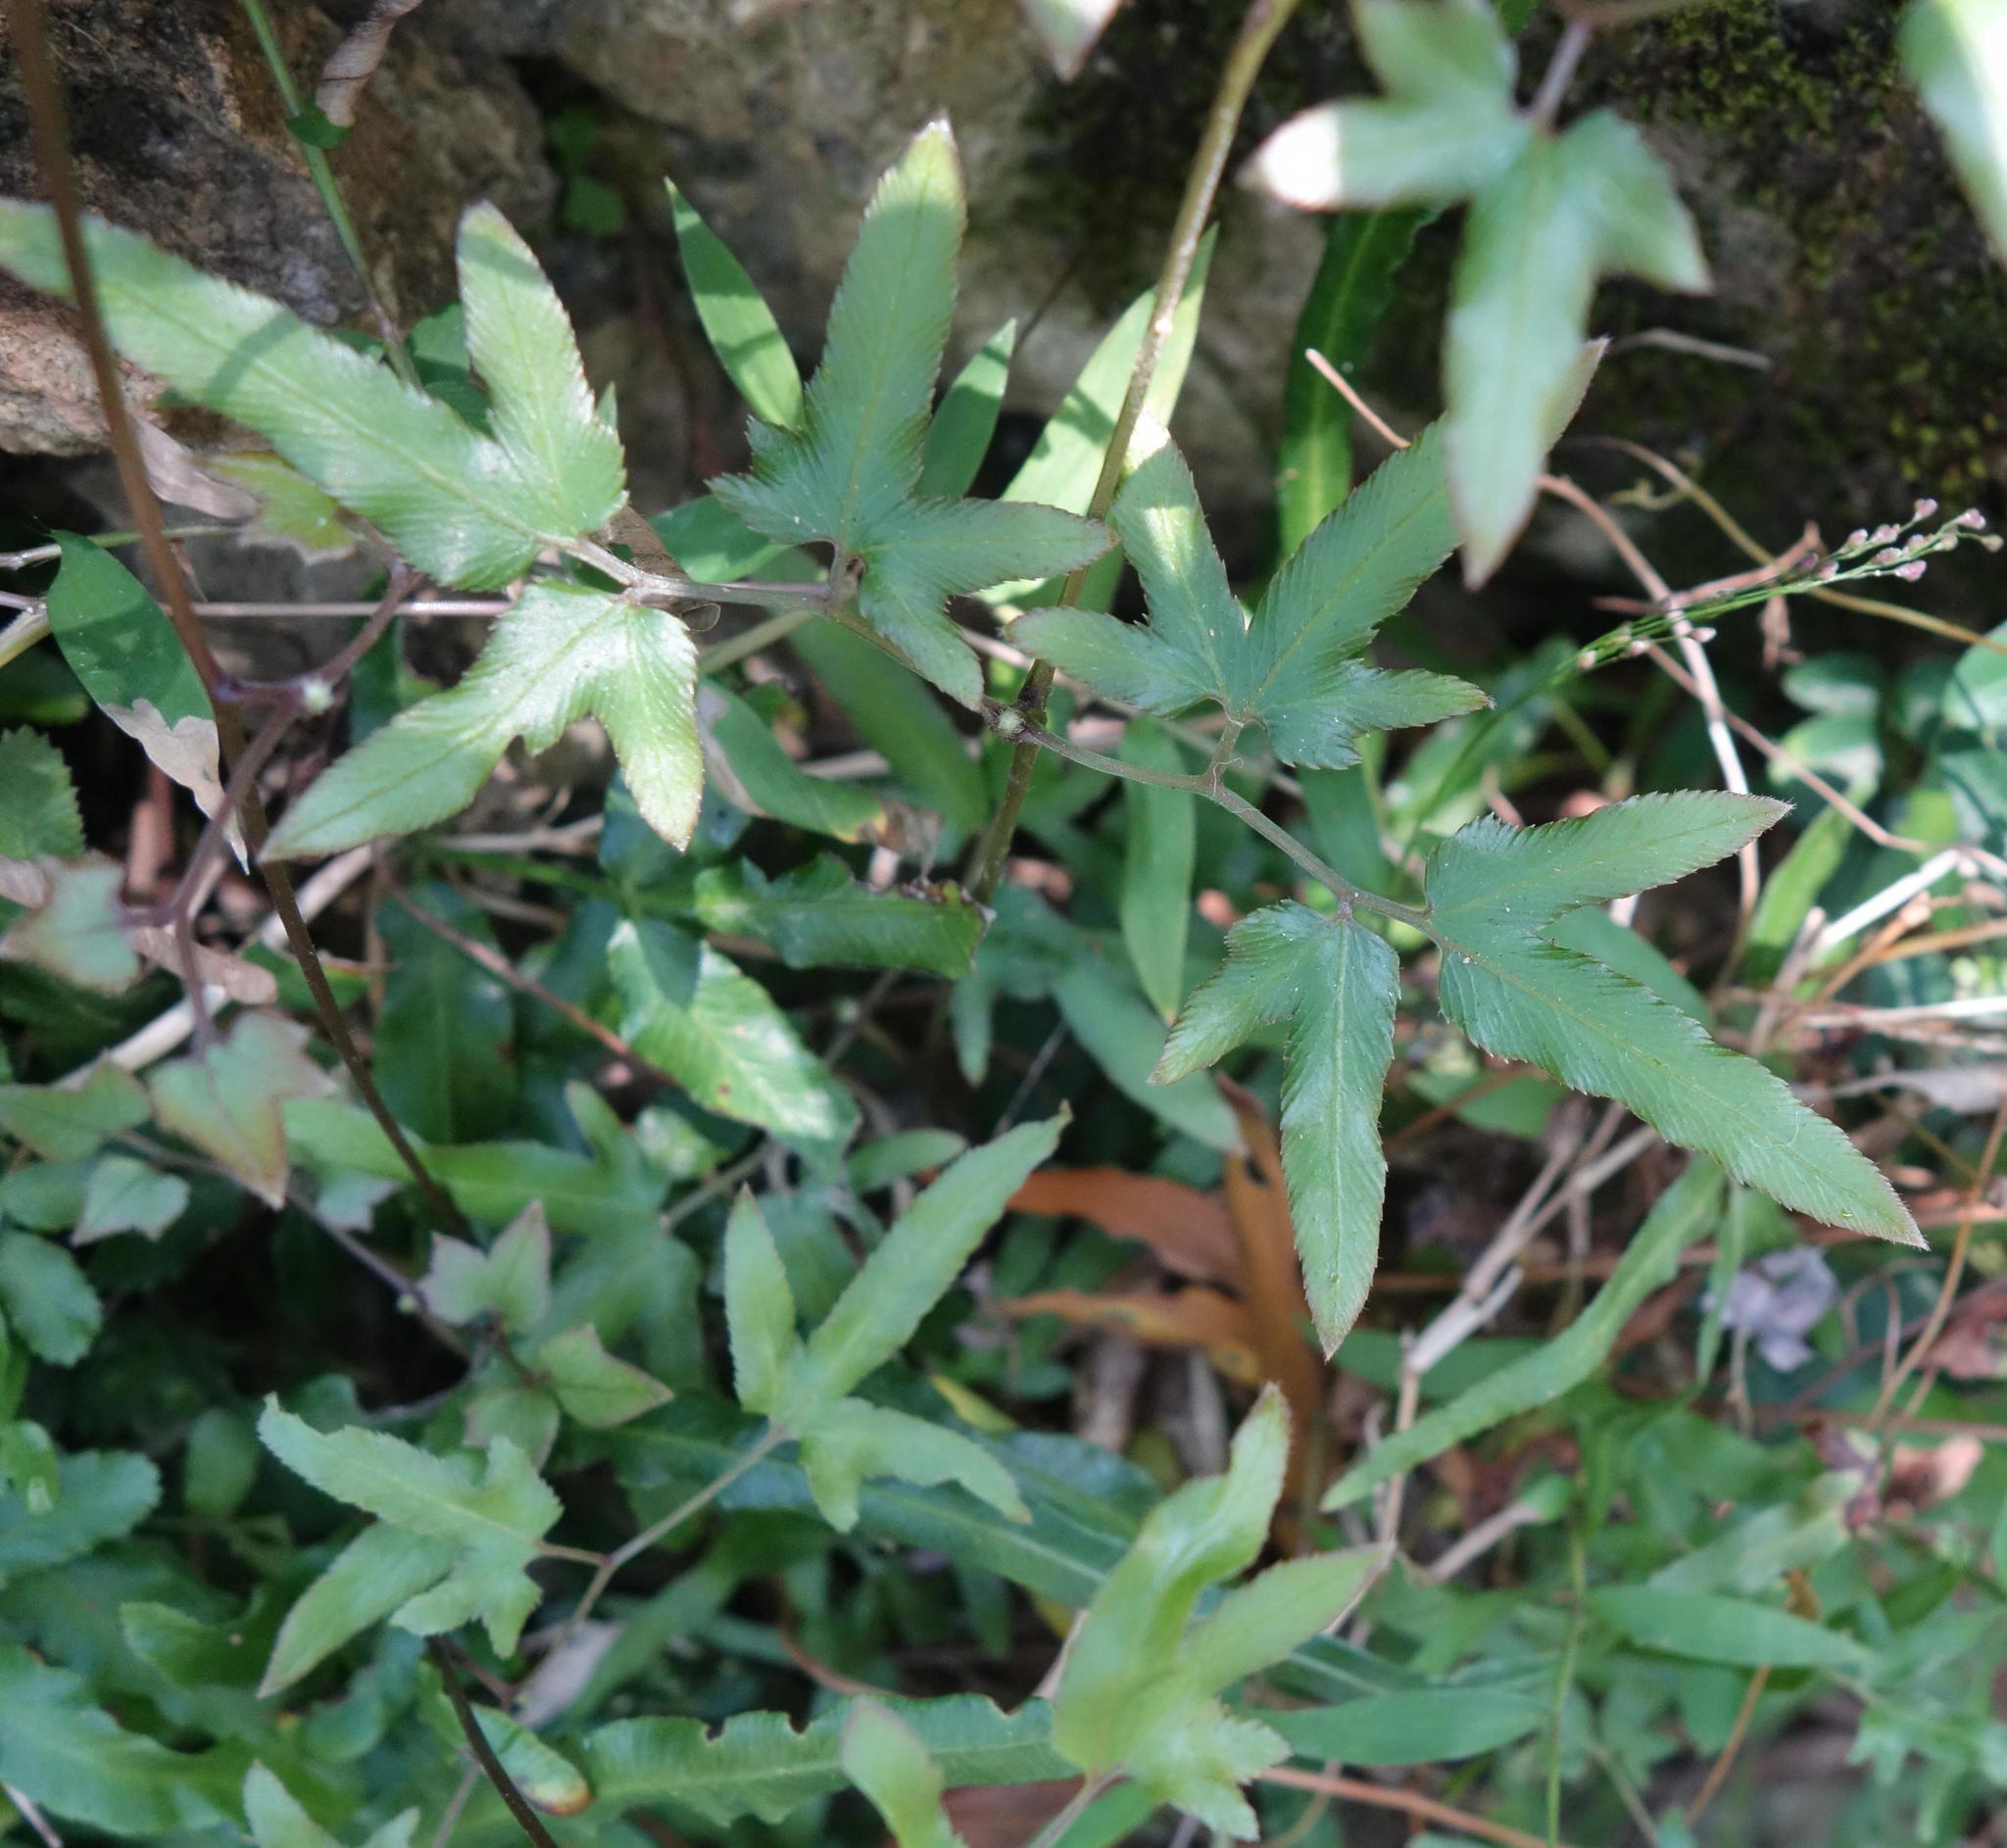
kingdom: Plantae
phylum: Tracheophyta
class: Polypodiopsida
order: Schizaeales
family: Lygodiaceae
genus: Lygodium
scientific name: Lygodium japonicum
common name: Japanese climbing fern
